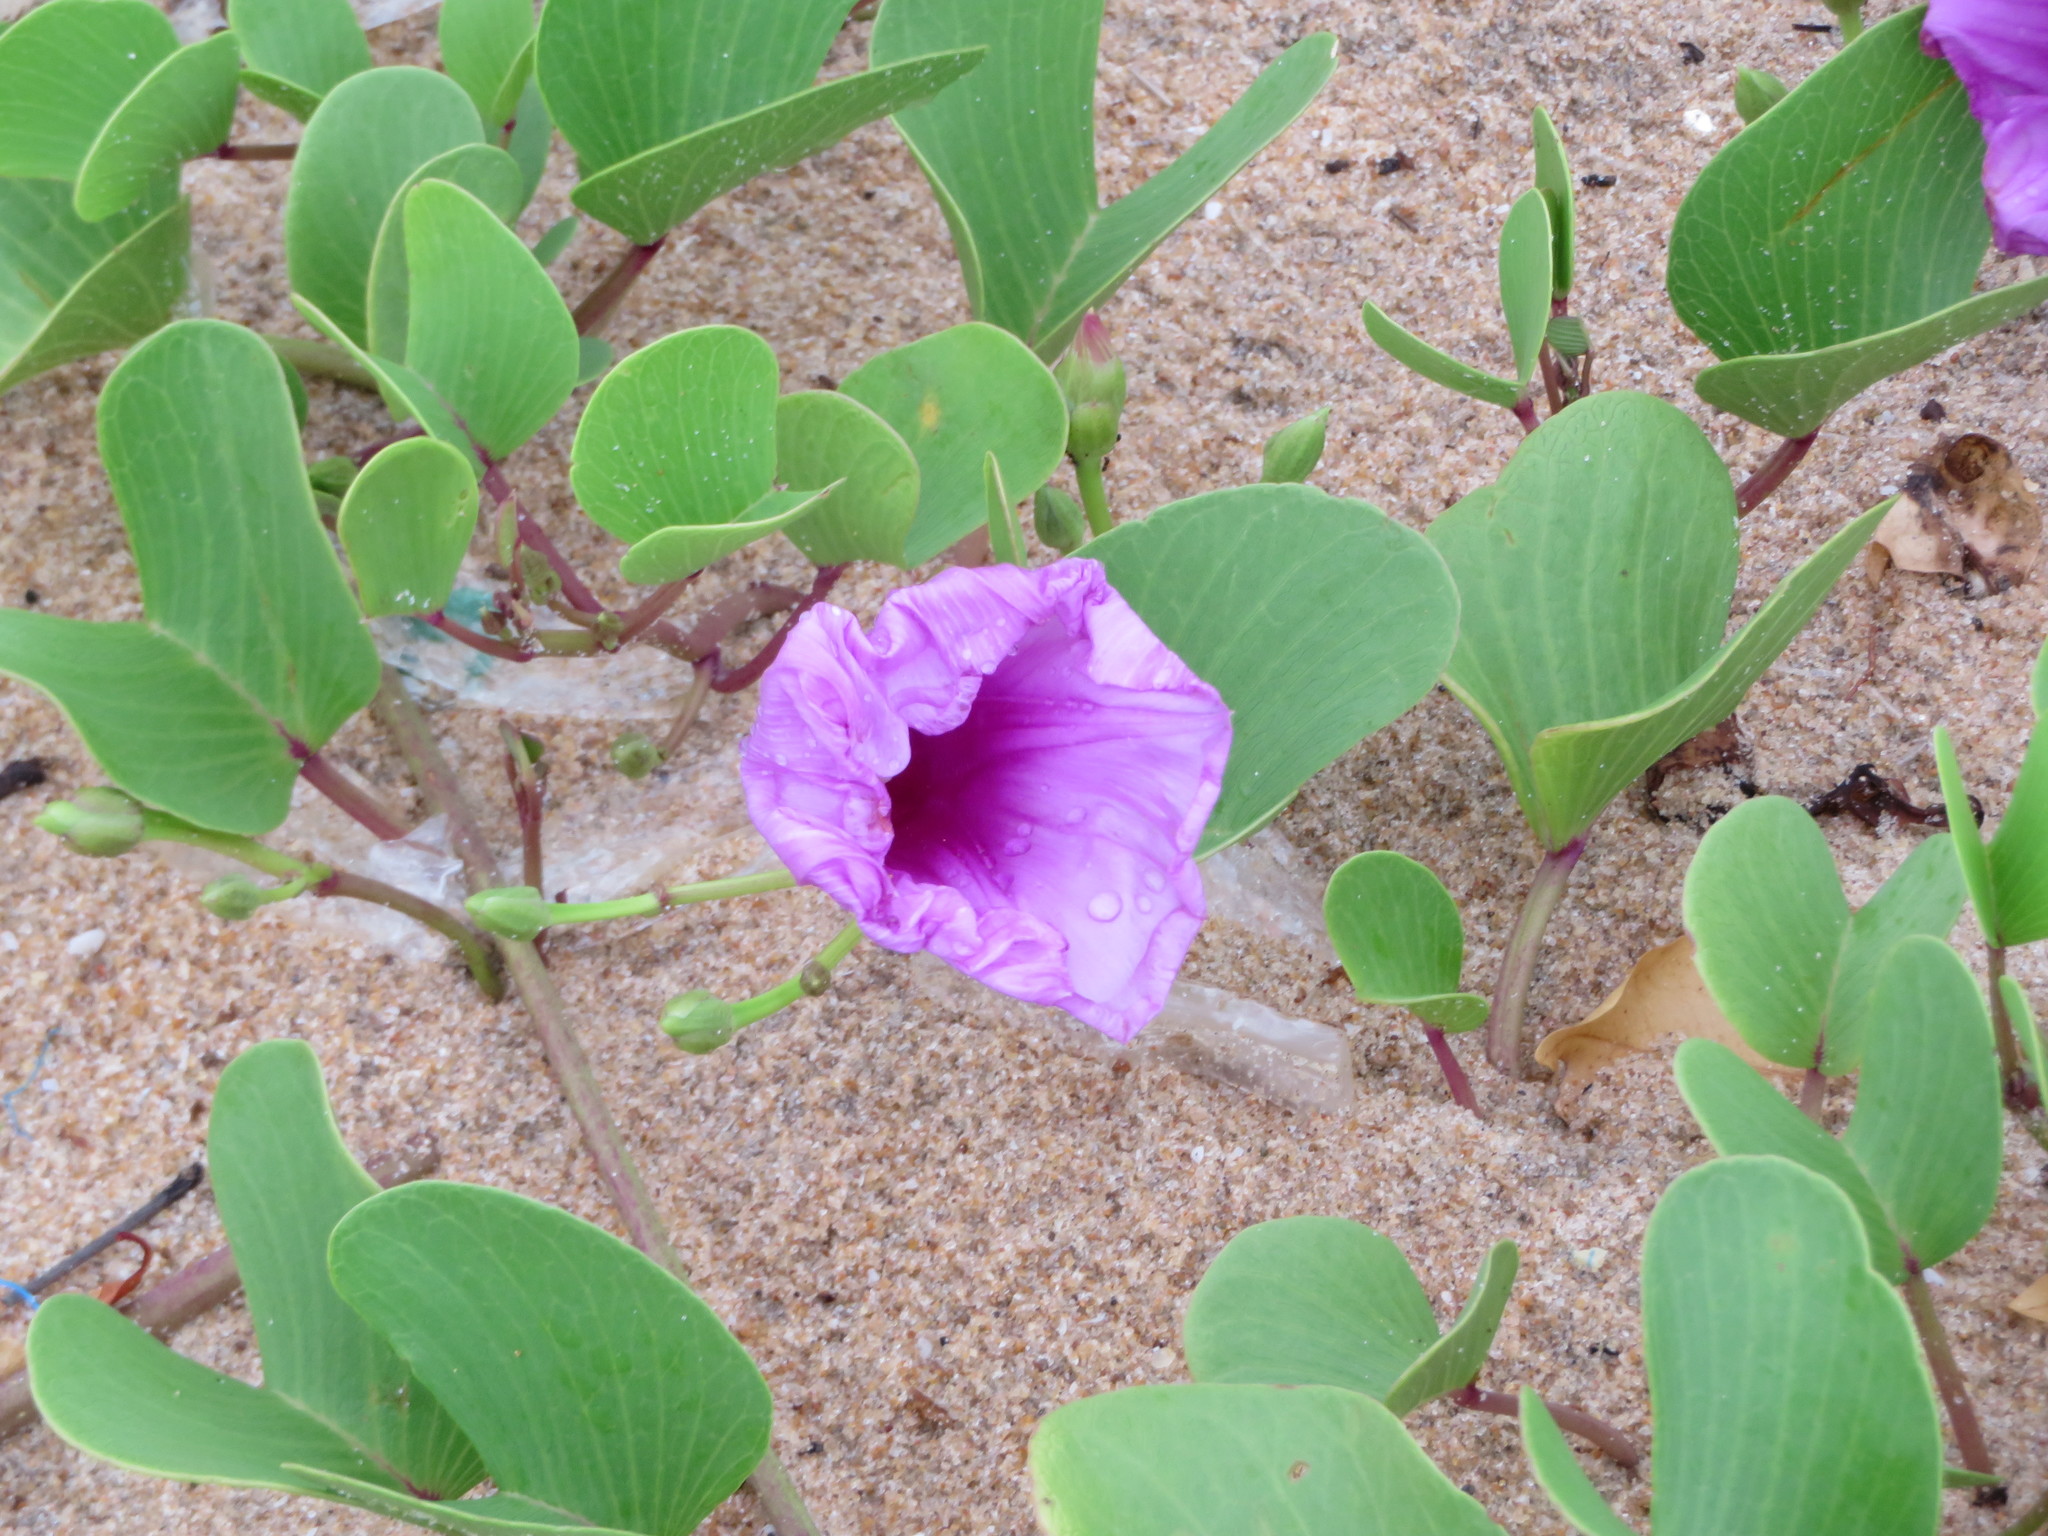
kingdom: Plantae
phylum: Tracheophyta
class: Magnoliopsida
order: Solanales
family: Convolvulaceae
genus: Ipomoea
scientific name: Ipomoea pes-caprae
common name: Beach morning glory
